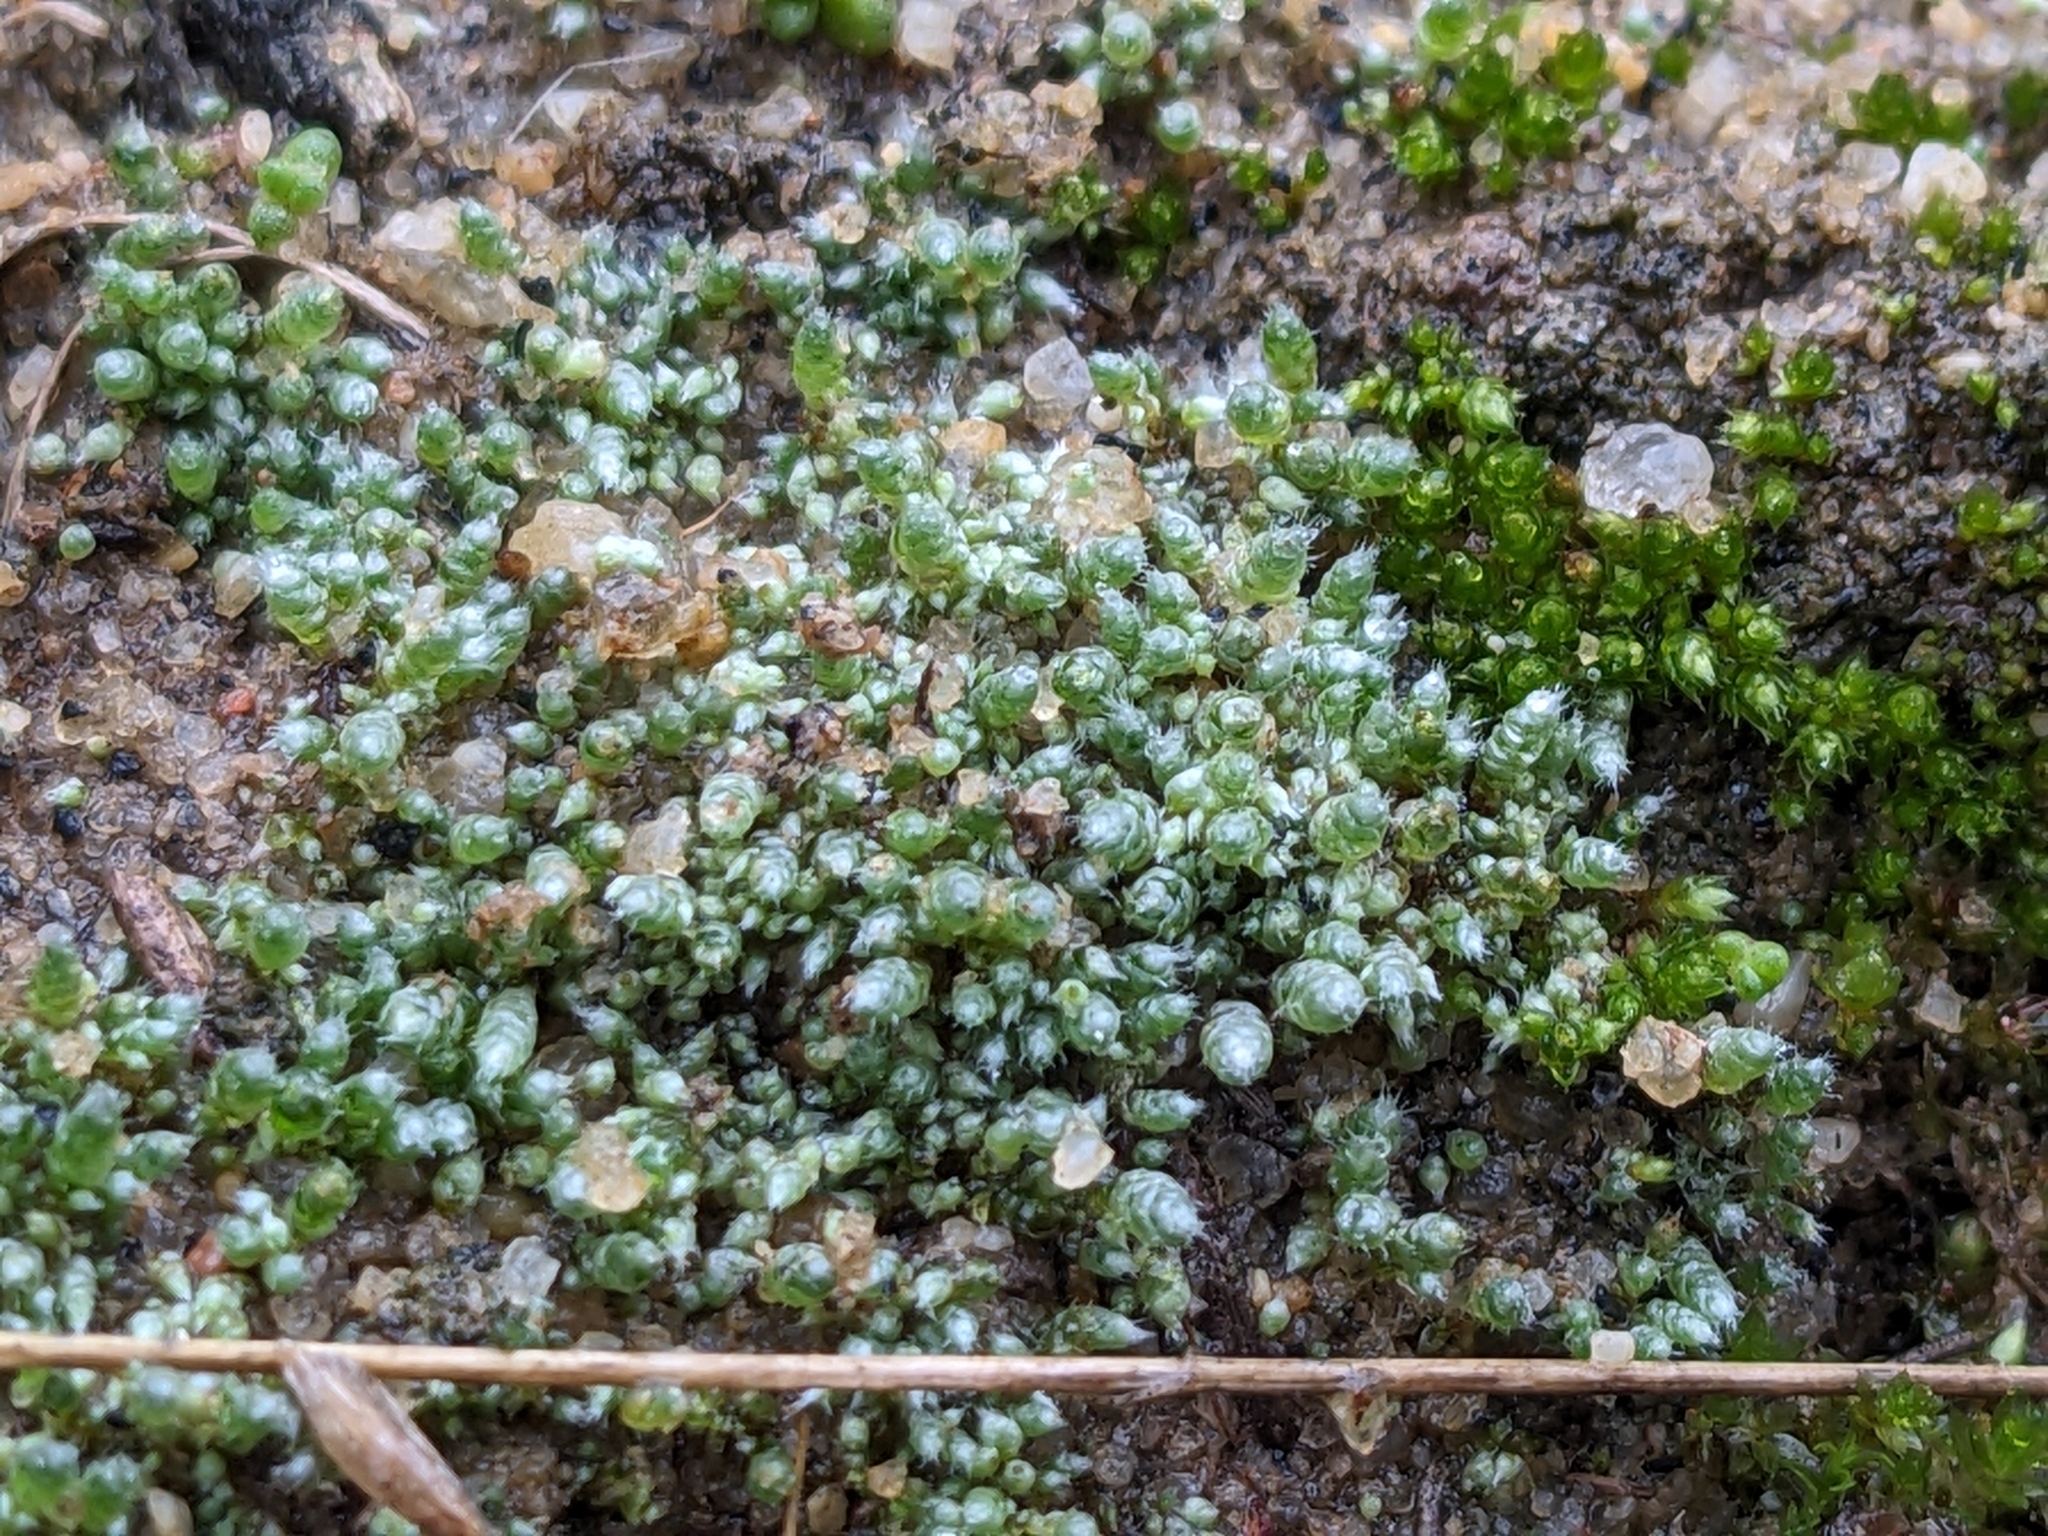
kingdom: Plantae
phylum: Bryophyta
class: Bryopsida
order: Bryales
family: Bryaceae
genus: Bryum
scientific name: Bryum argenteum
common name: Silver-moss
